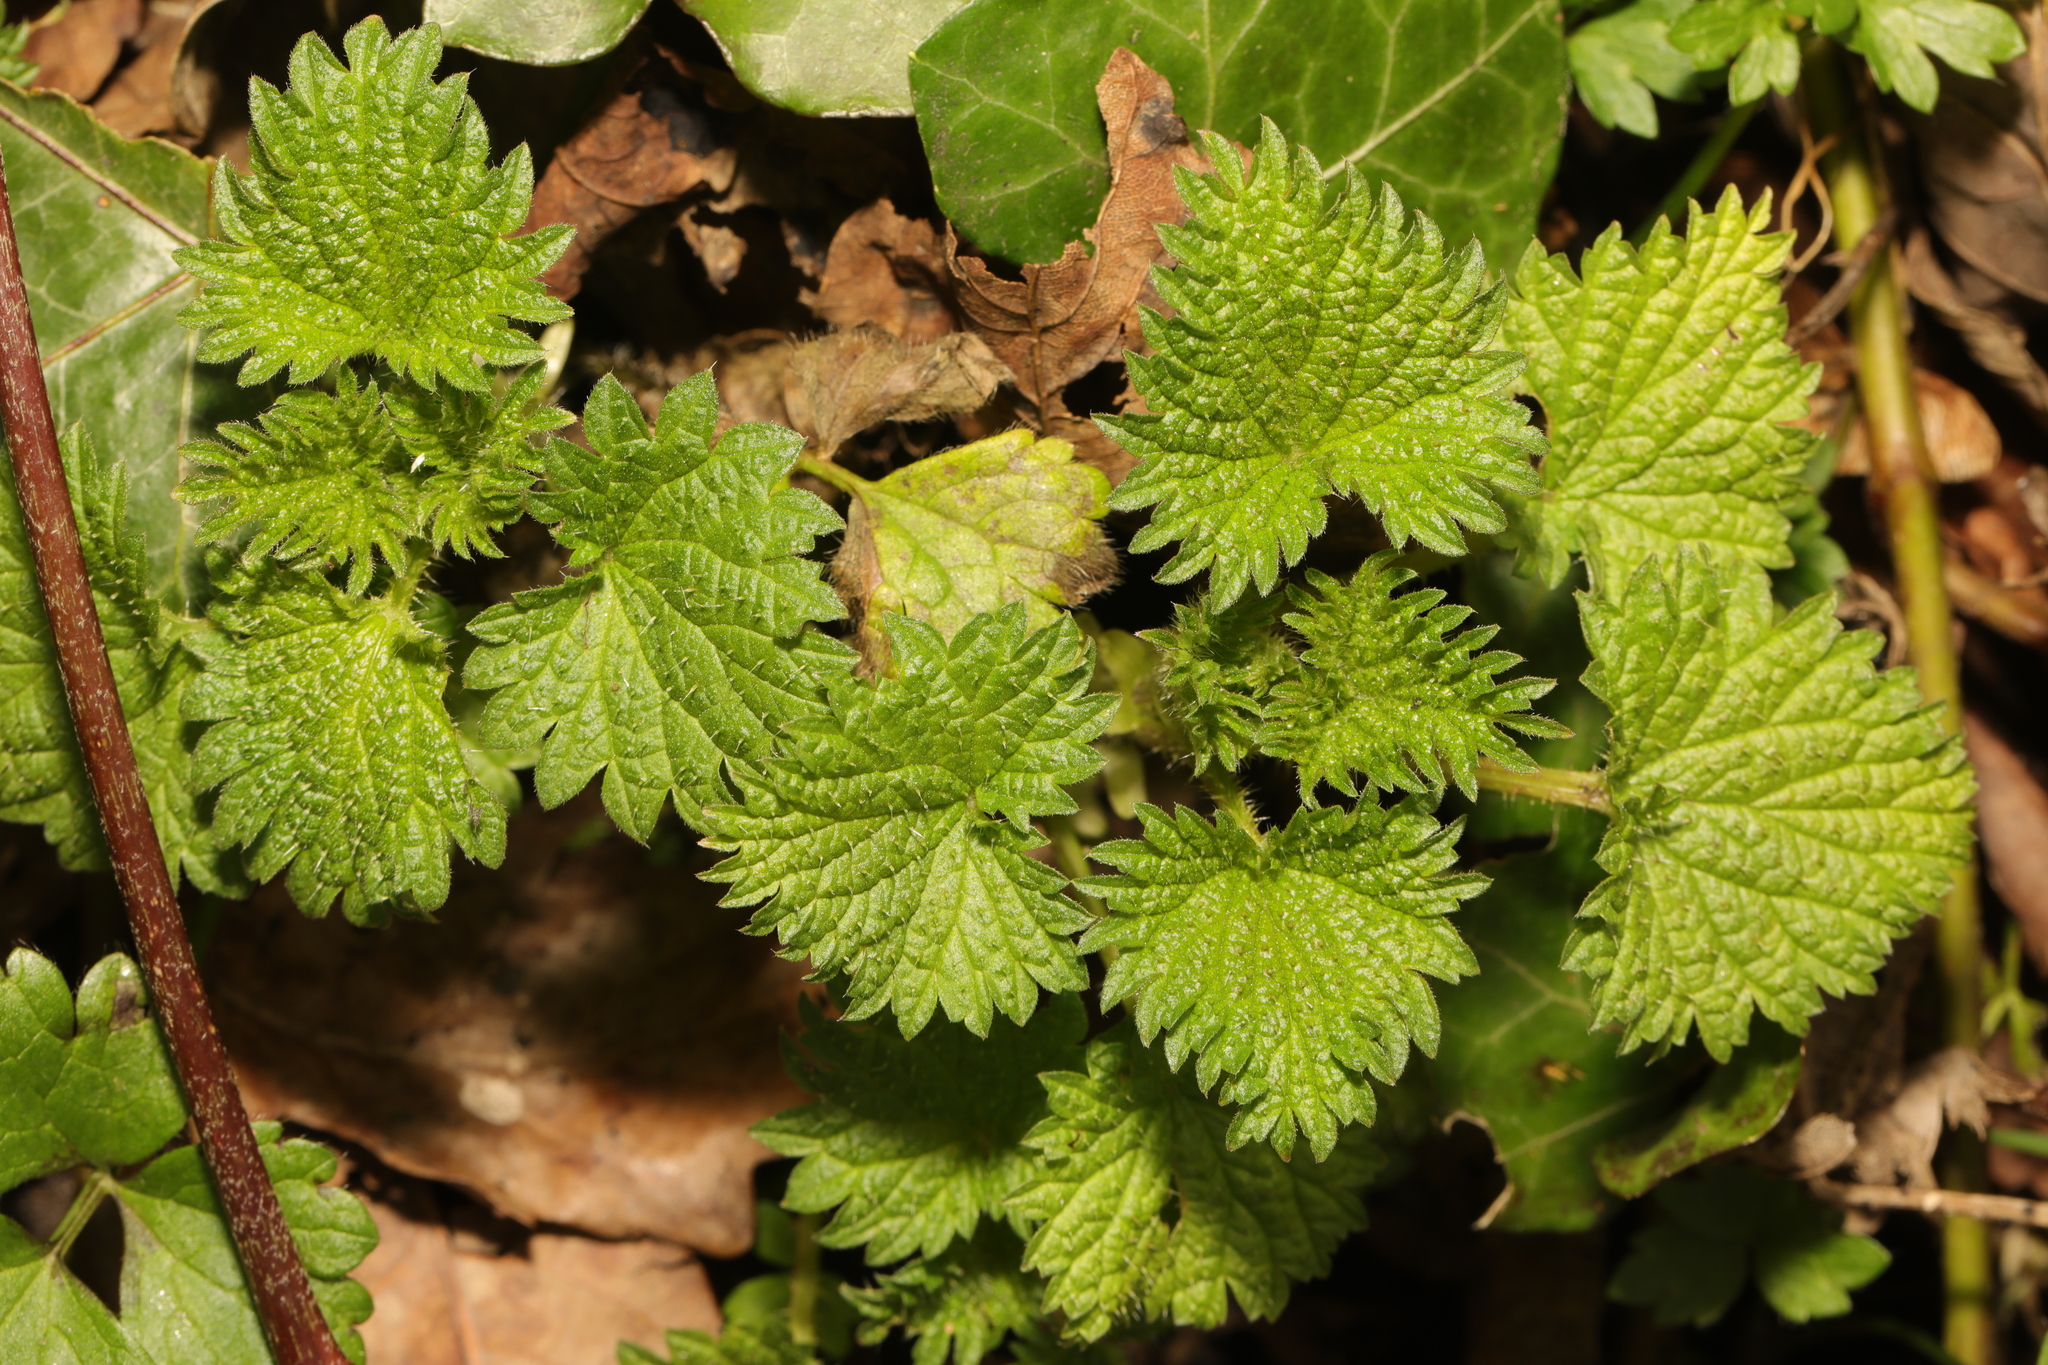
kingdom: Plantae
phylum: Tracheophyta
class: Magnoliopsida
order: Rosales
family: Urticaceae
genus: Urtica
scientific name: Urtica dioica
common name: Common nettle
